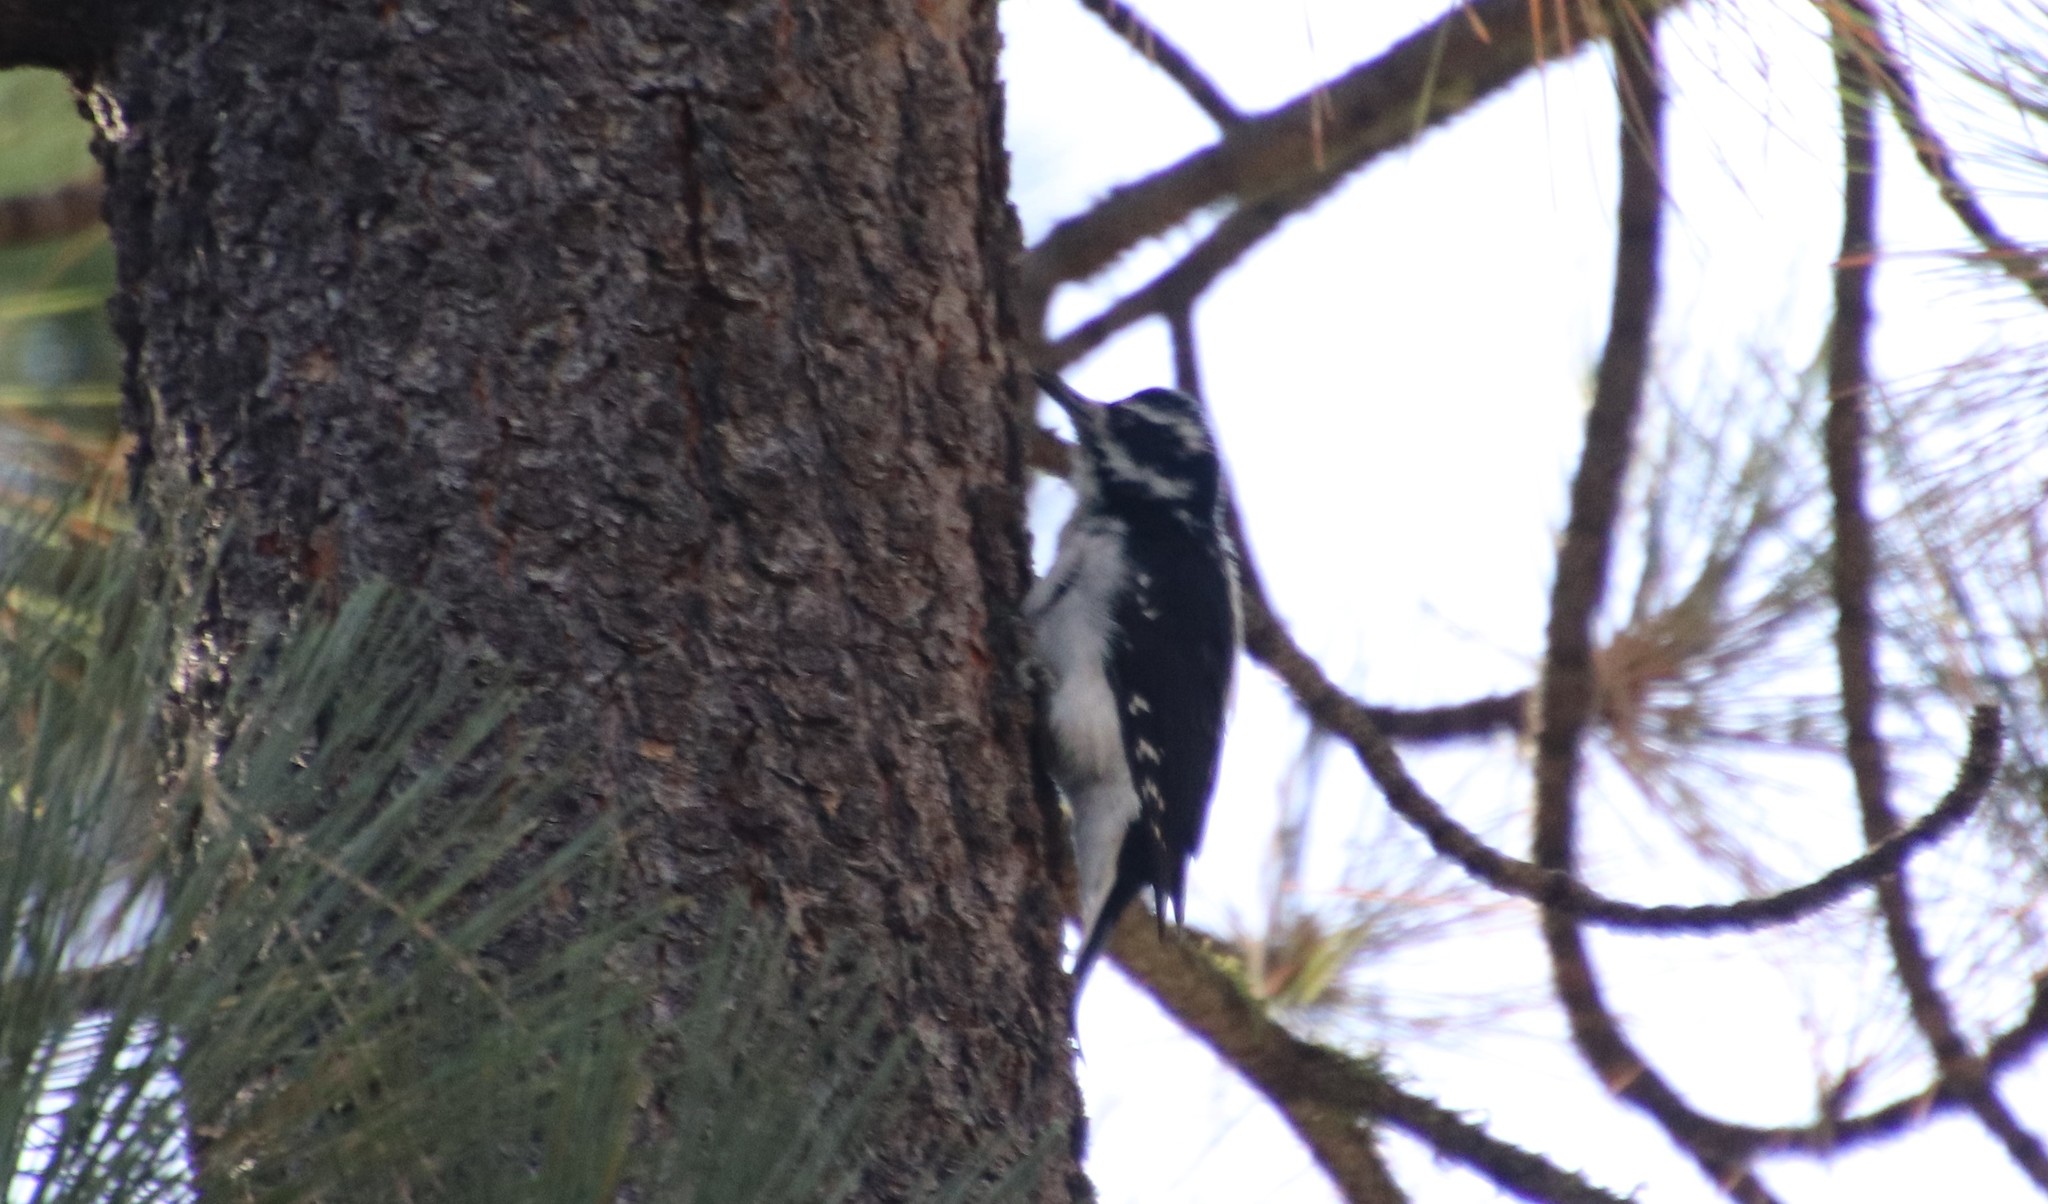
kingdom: Animalia
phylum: Chordata
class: Aves
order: Piciformes
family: Picidae
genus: Leuconotopicus
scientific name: Leuconotopicus villosus
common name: Hairy woodpecker
